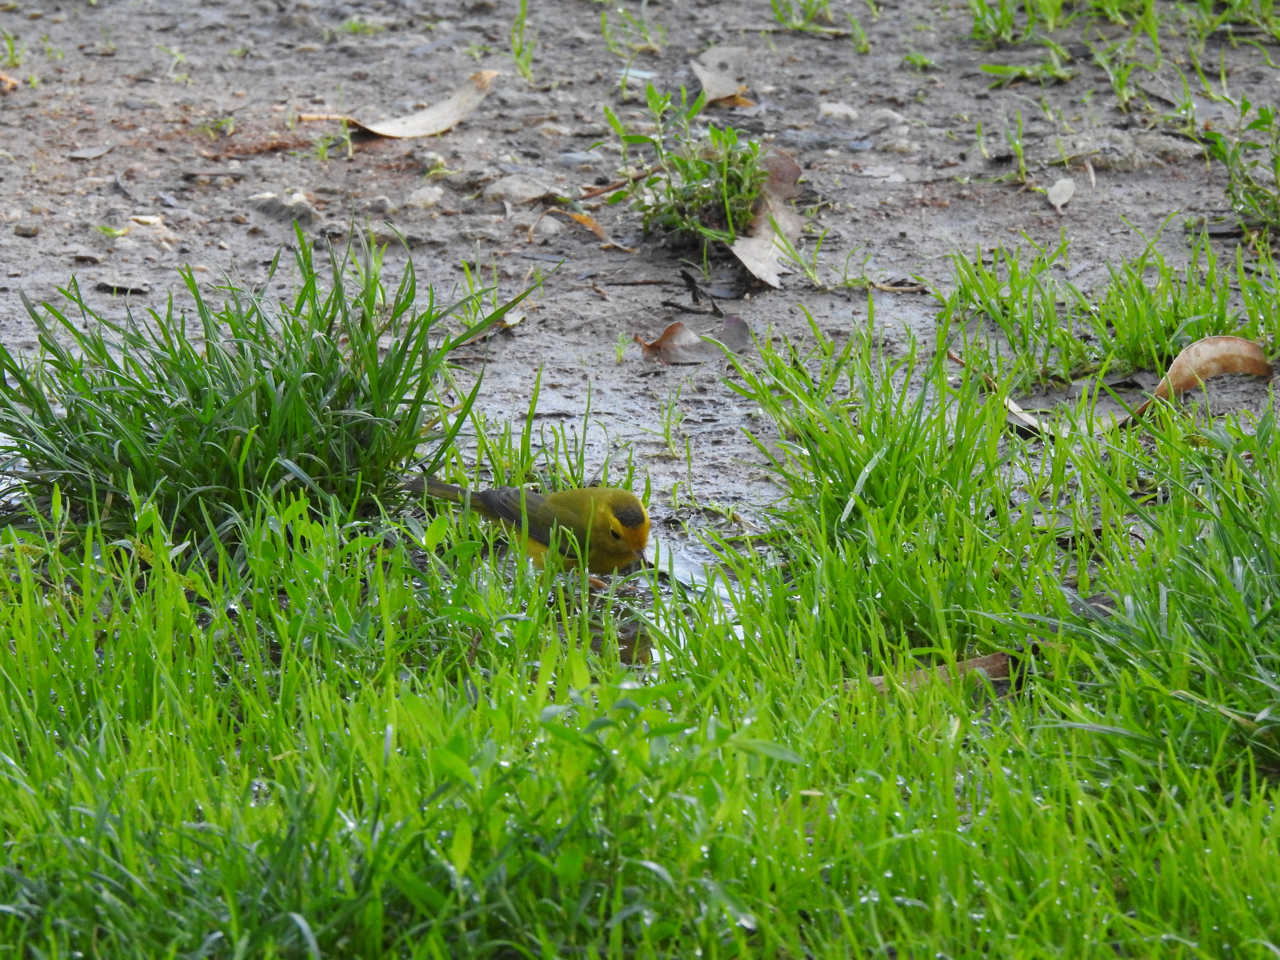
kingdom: Animalia
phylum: Chordata
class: Aves
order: Passeriformes
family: Parulidae
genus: Cardellina
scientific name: Cardellina pusilla
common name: Wilson's warbler
